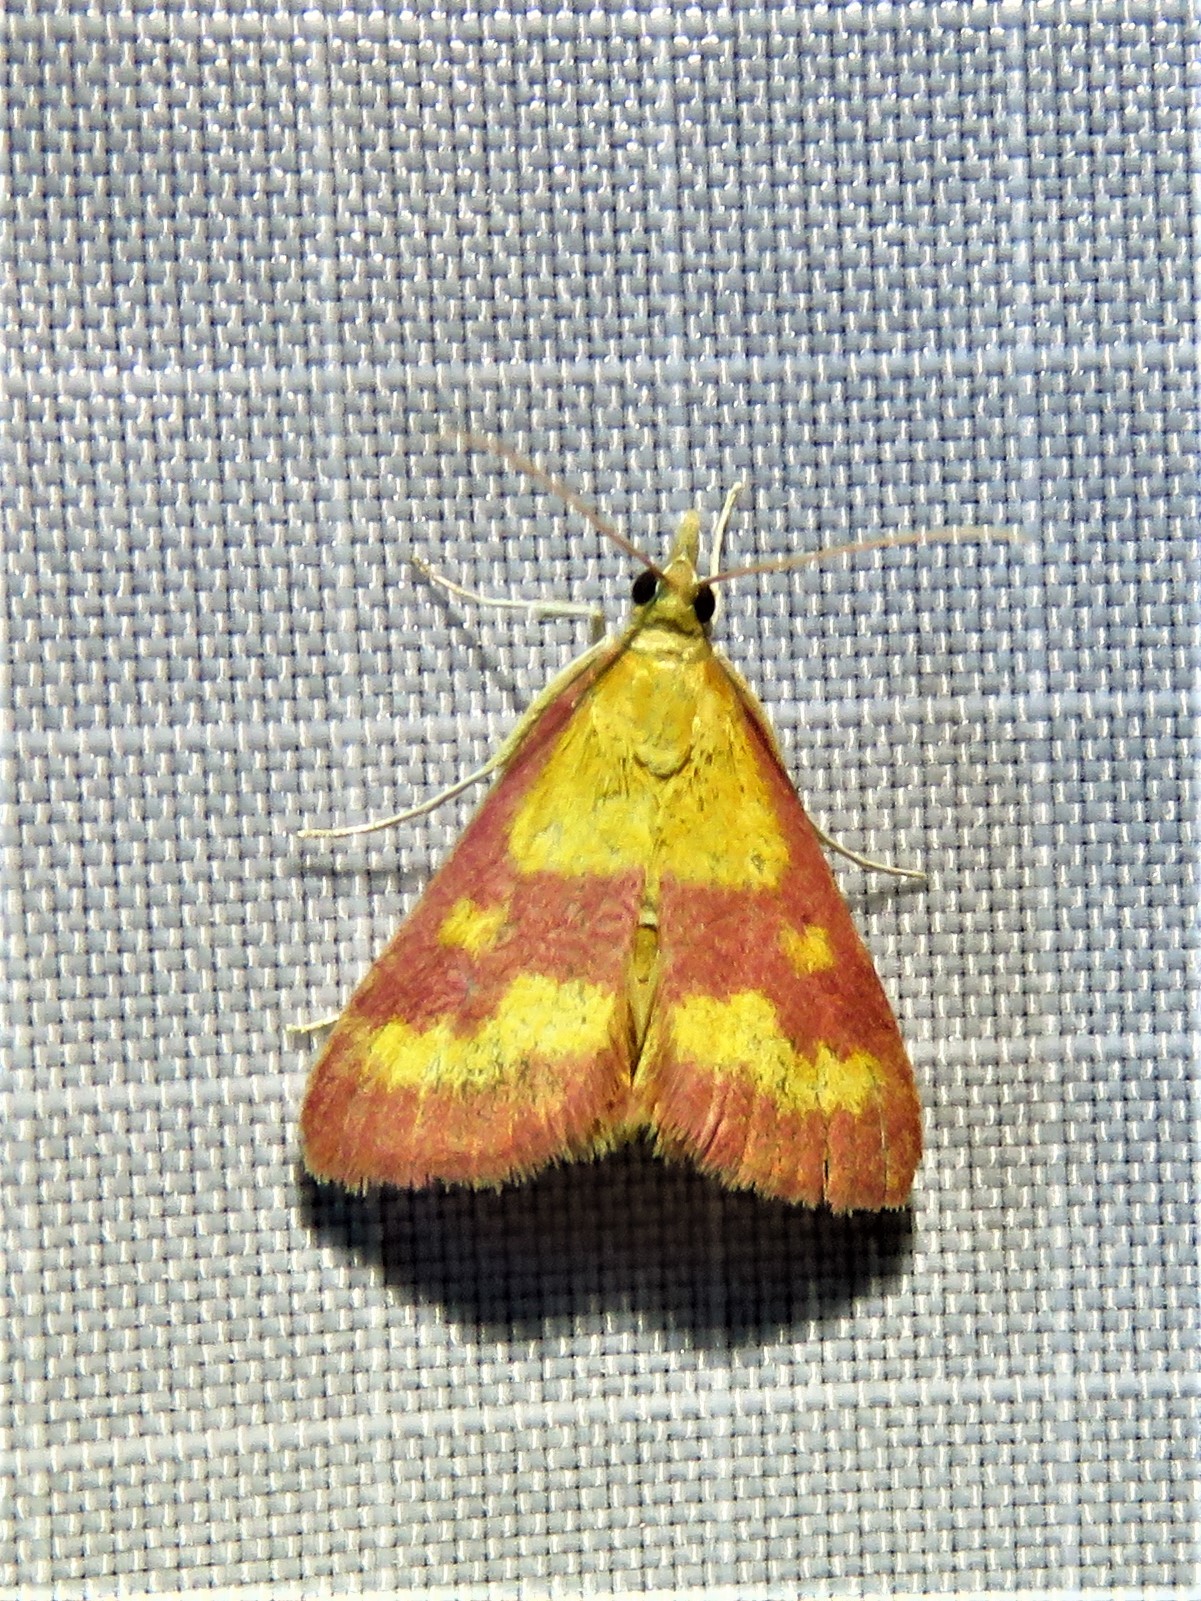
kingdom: Animalia
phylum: Arthropoda
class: Insecta
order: Lepidoptera
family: Crambidae
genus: Pyrausta
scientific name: Pyrausta laticlavia
